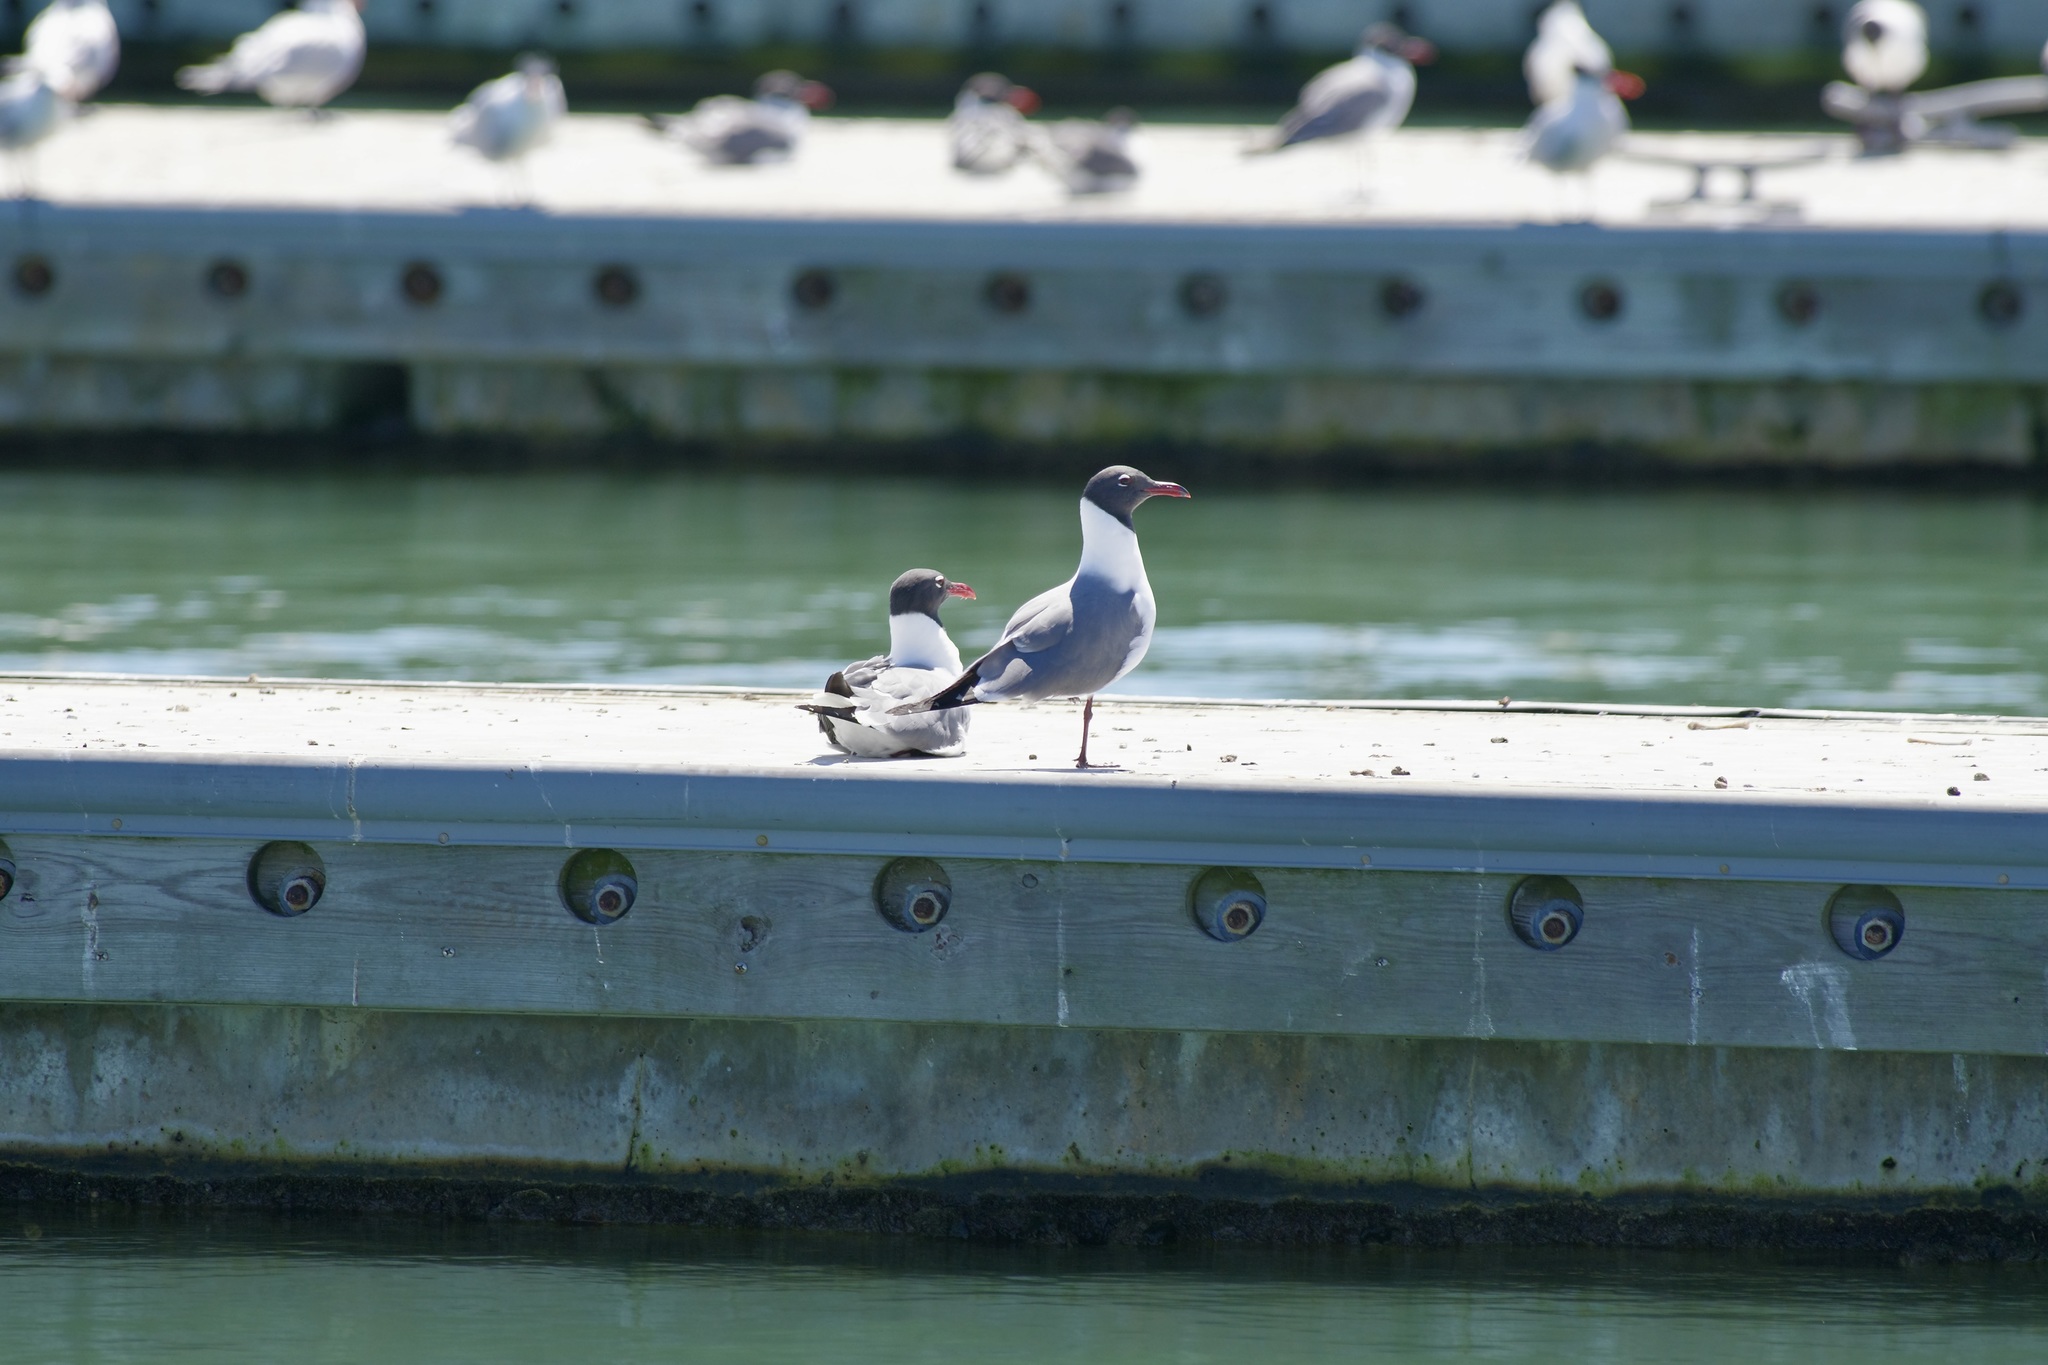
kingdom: Animalia
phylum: Chordata
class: Aves
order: Charadriiformes
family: Laridae
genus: Leucophaeus
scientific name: Leucophaeus atricilla
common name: Laughing gull
